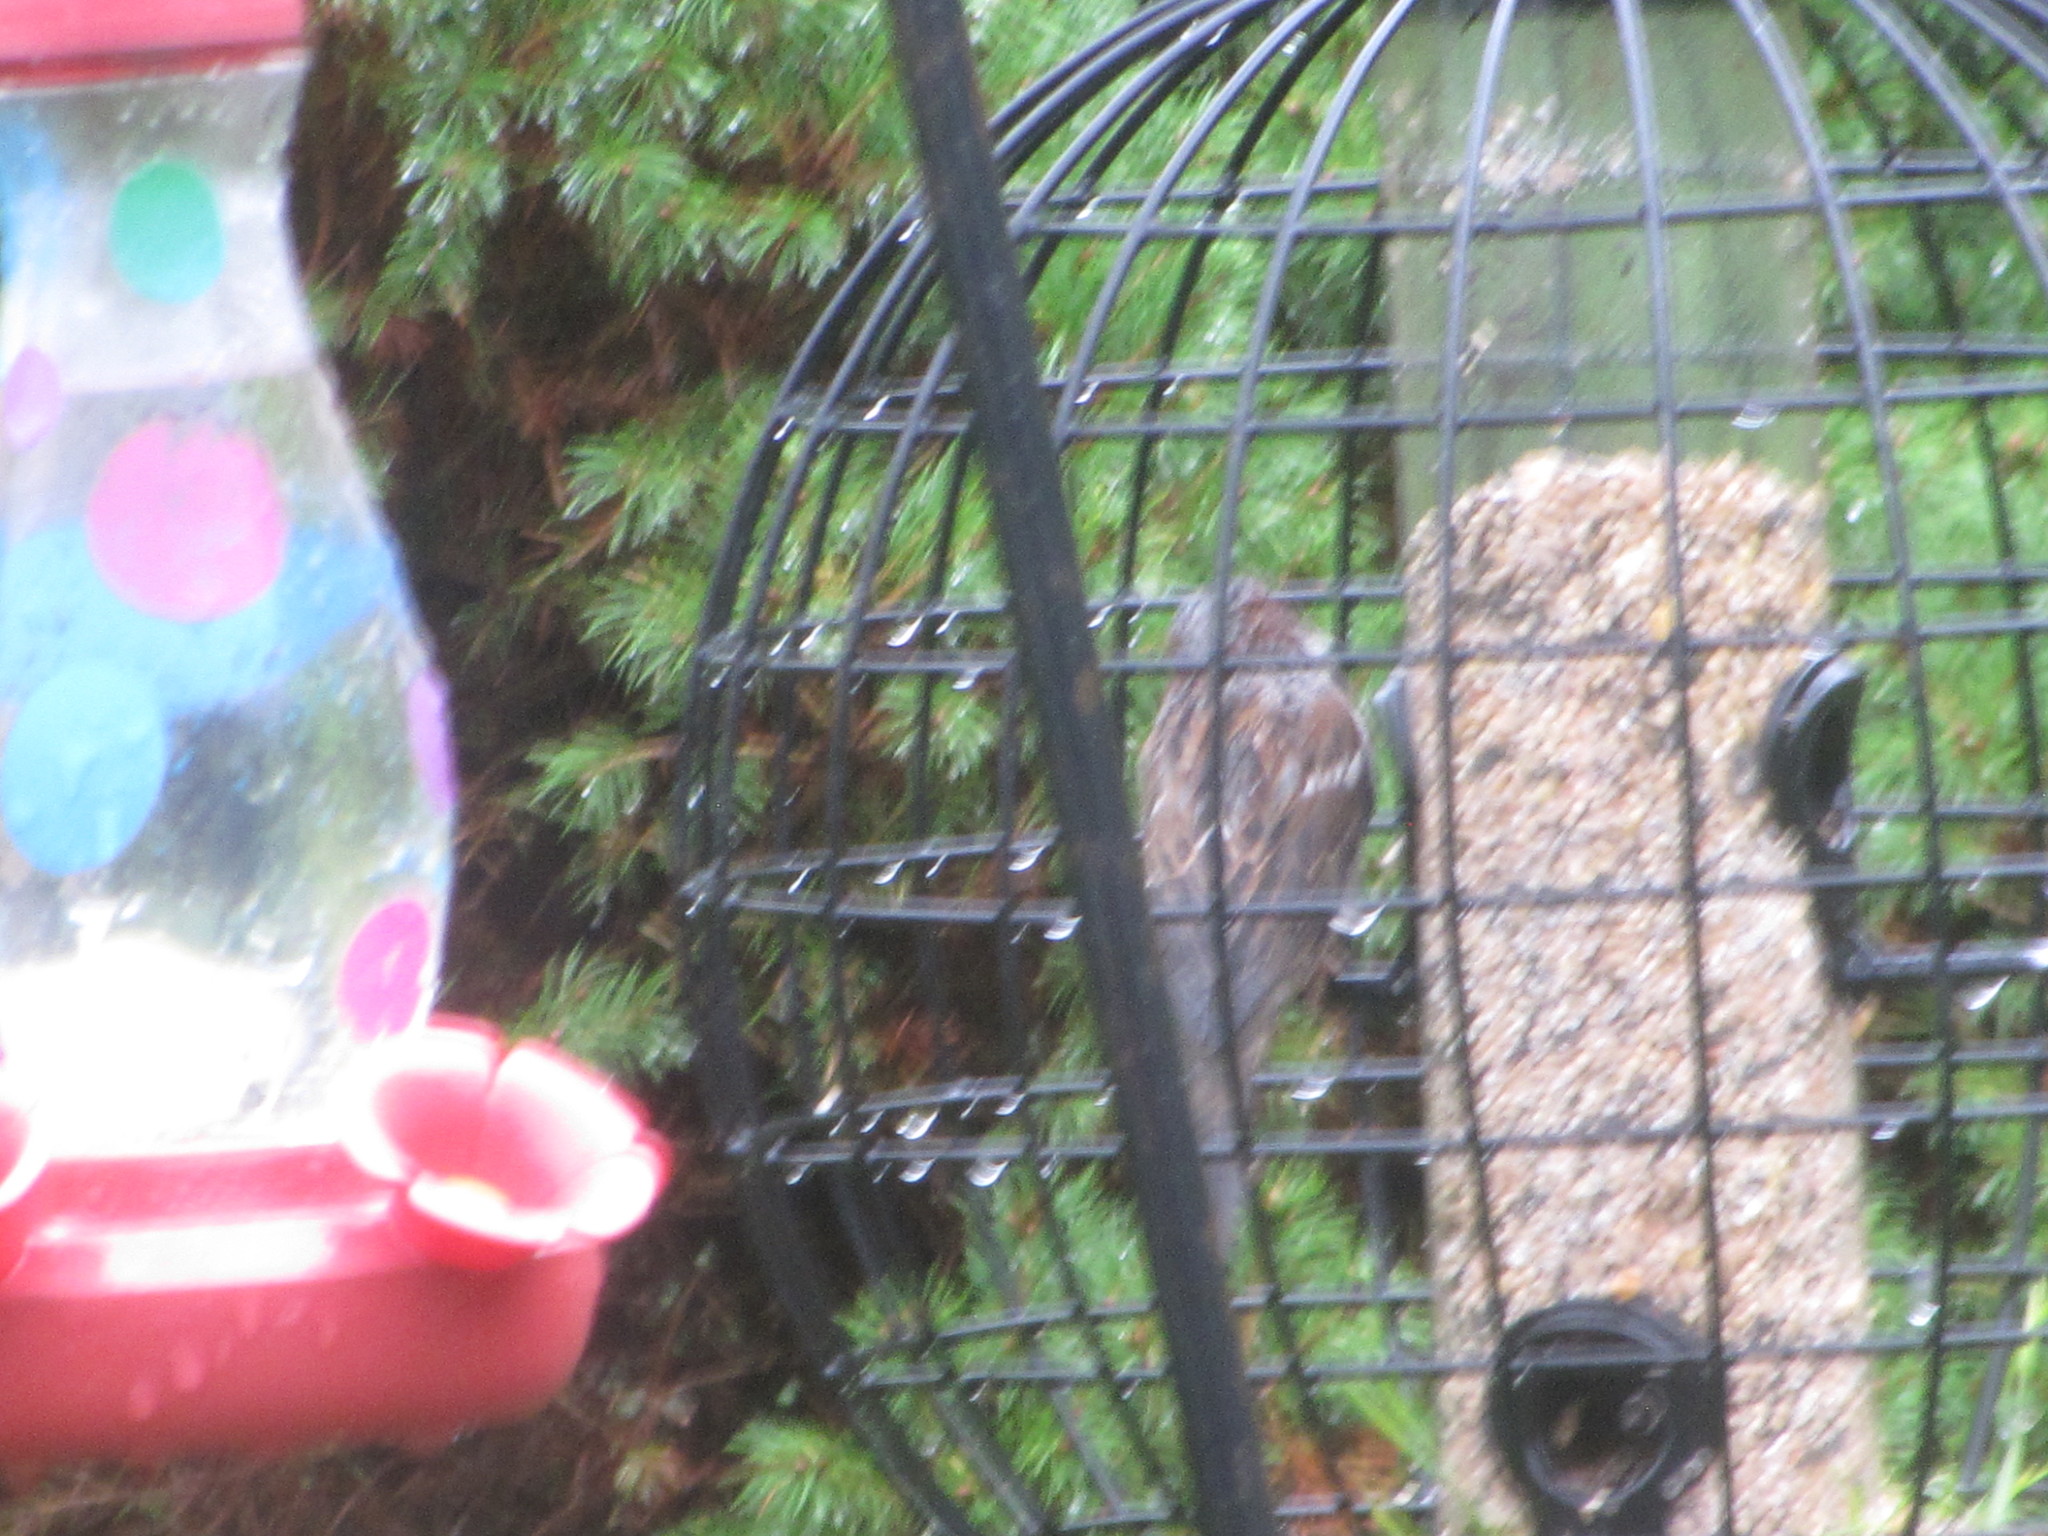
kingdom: Animalia
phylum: Chordata
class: Aves
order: Passeriformes
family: Passeridae
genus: Passer
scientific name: Passer domesticus
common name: House sparrow
